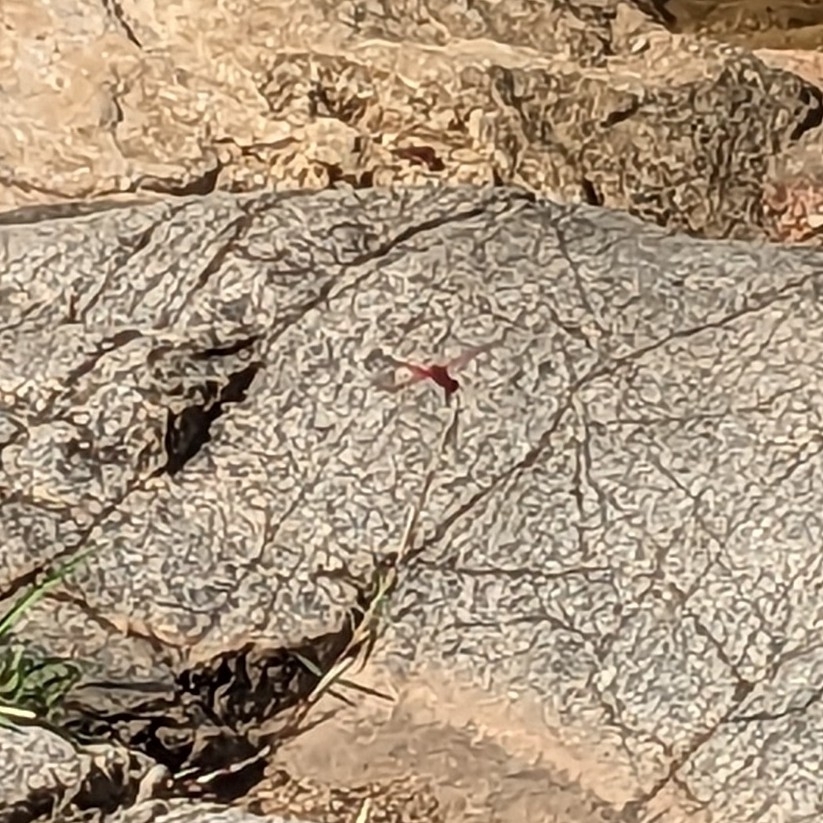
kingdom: Animalia
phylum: Arthropoda
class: Insecta
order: Odonata
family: Libellulidae
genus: Trithemis
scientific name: Trithemis aurora
